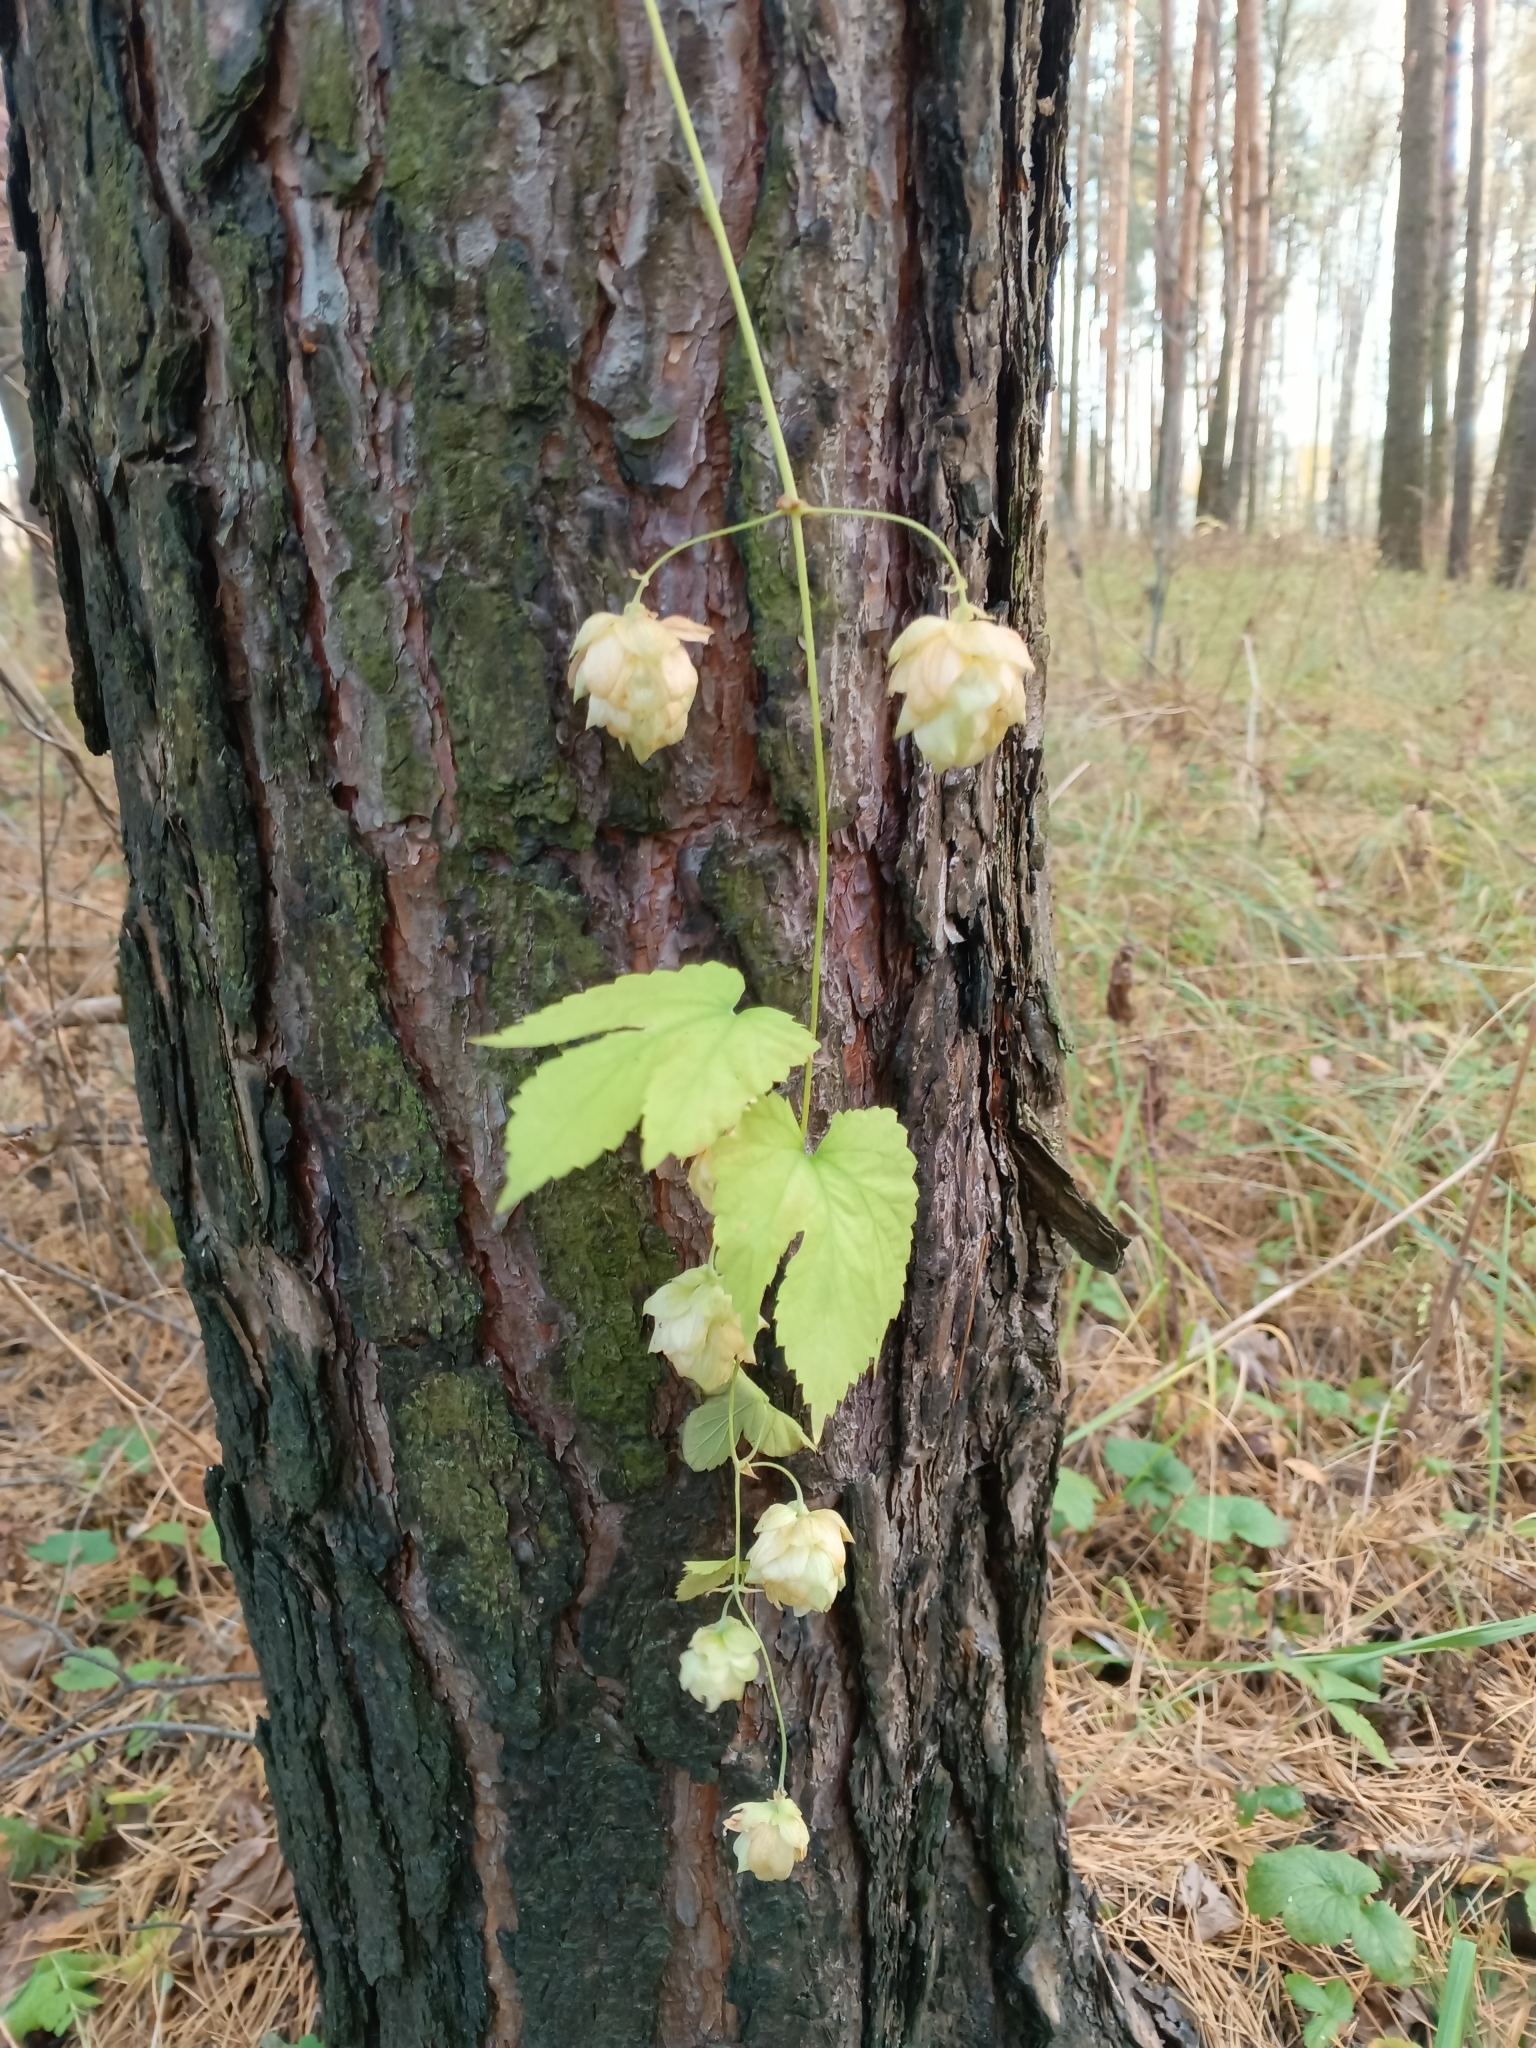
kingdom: Plantae
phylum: Tracheophyta
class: Magnoliopsida
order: Rosales
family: Cannabaceae
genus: Humulus
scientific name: Humulus lupulus
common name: Hop
